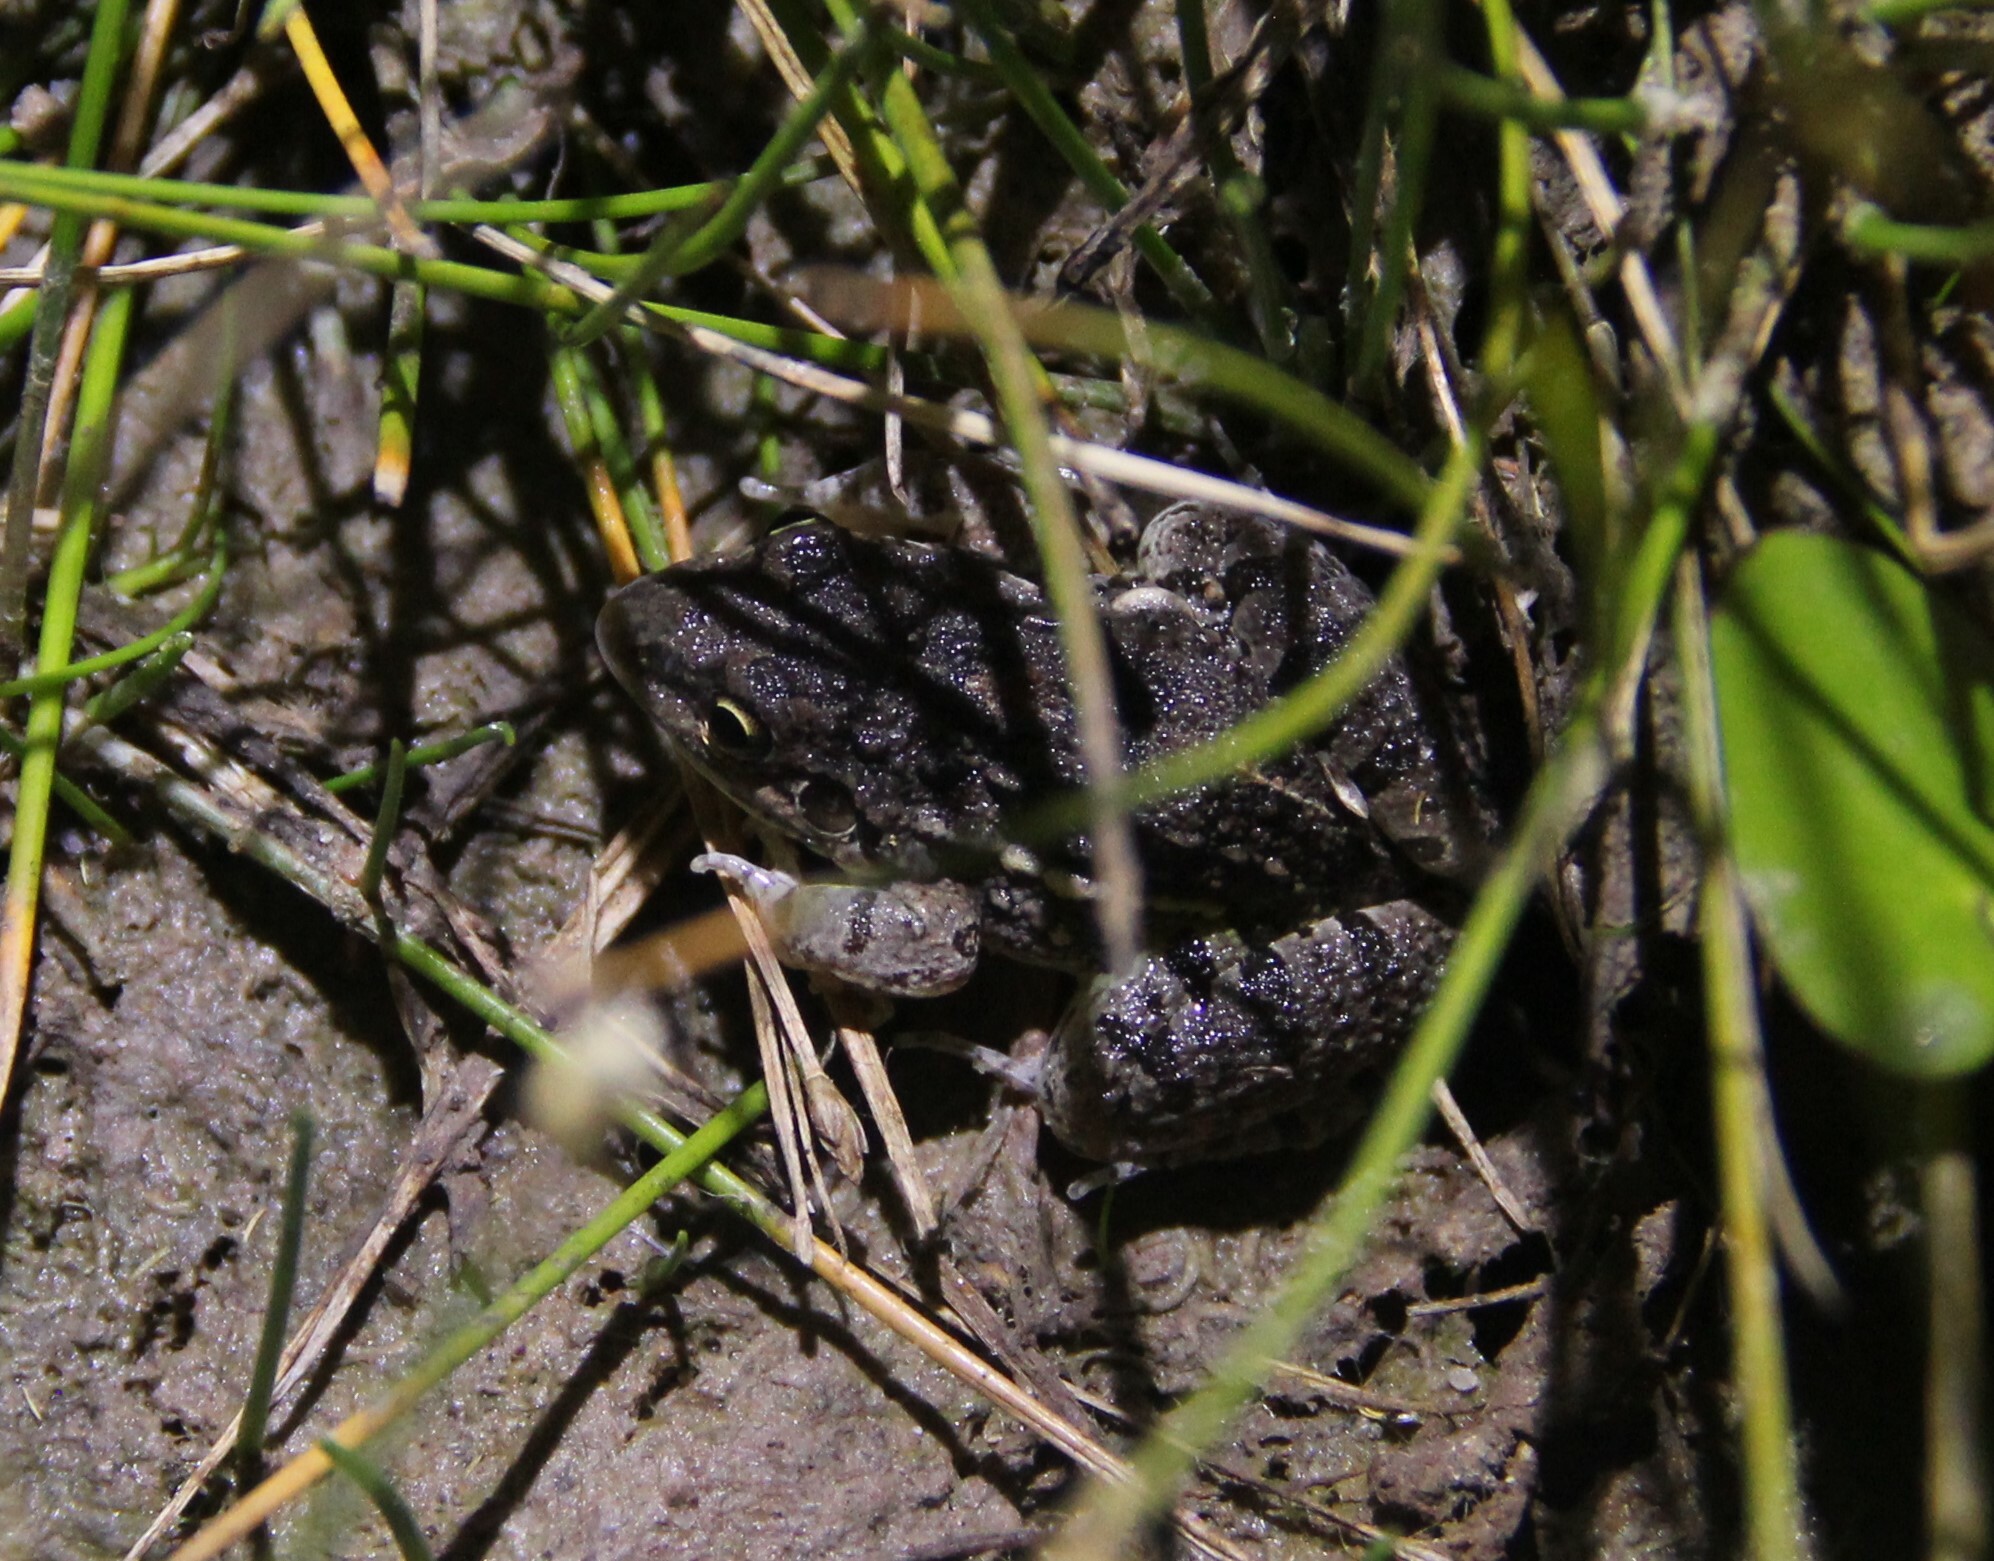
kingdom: Animalia
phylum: Chordata
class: Amphibia
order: Anura
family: Leptodactylidae
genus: Leptodactylus
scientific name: Leptodactylus latinasus
